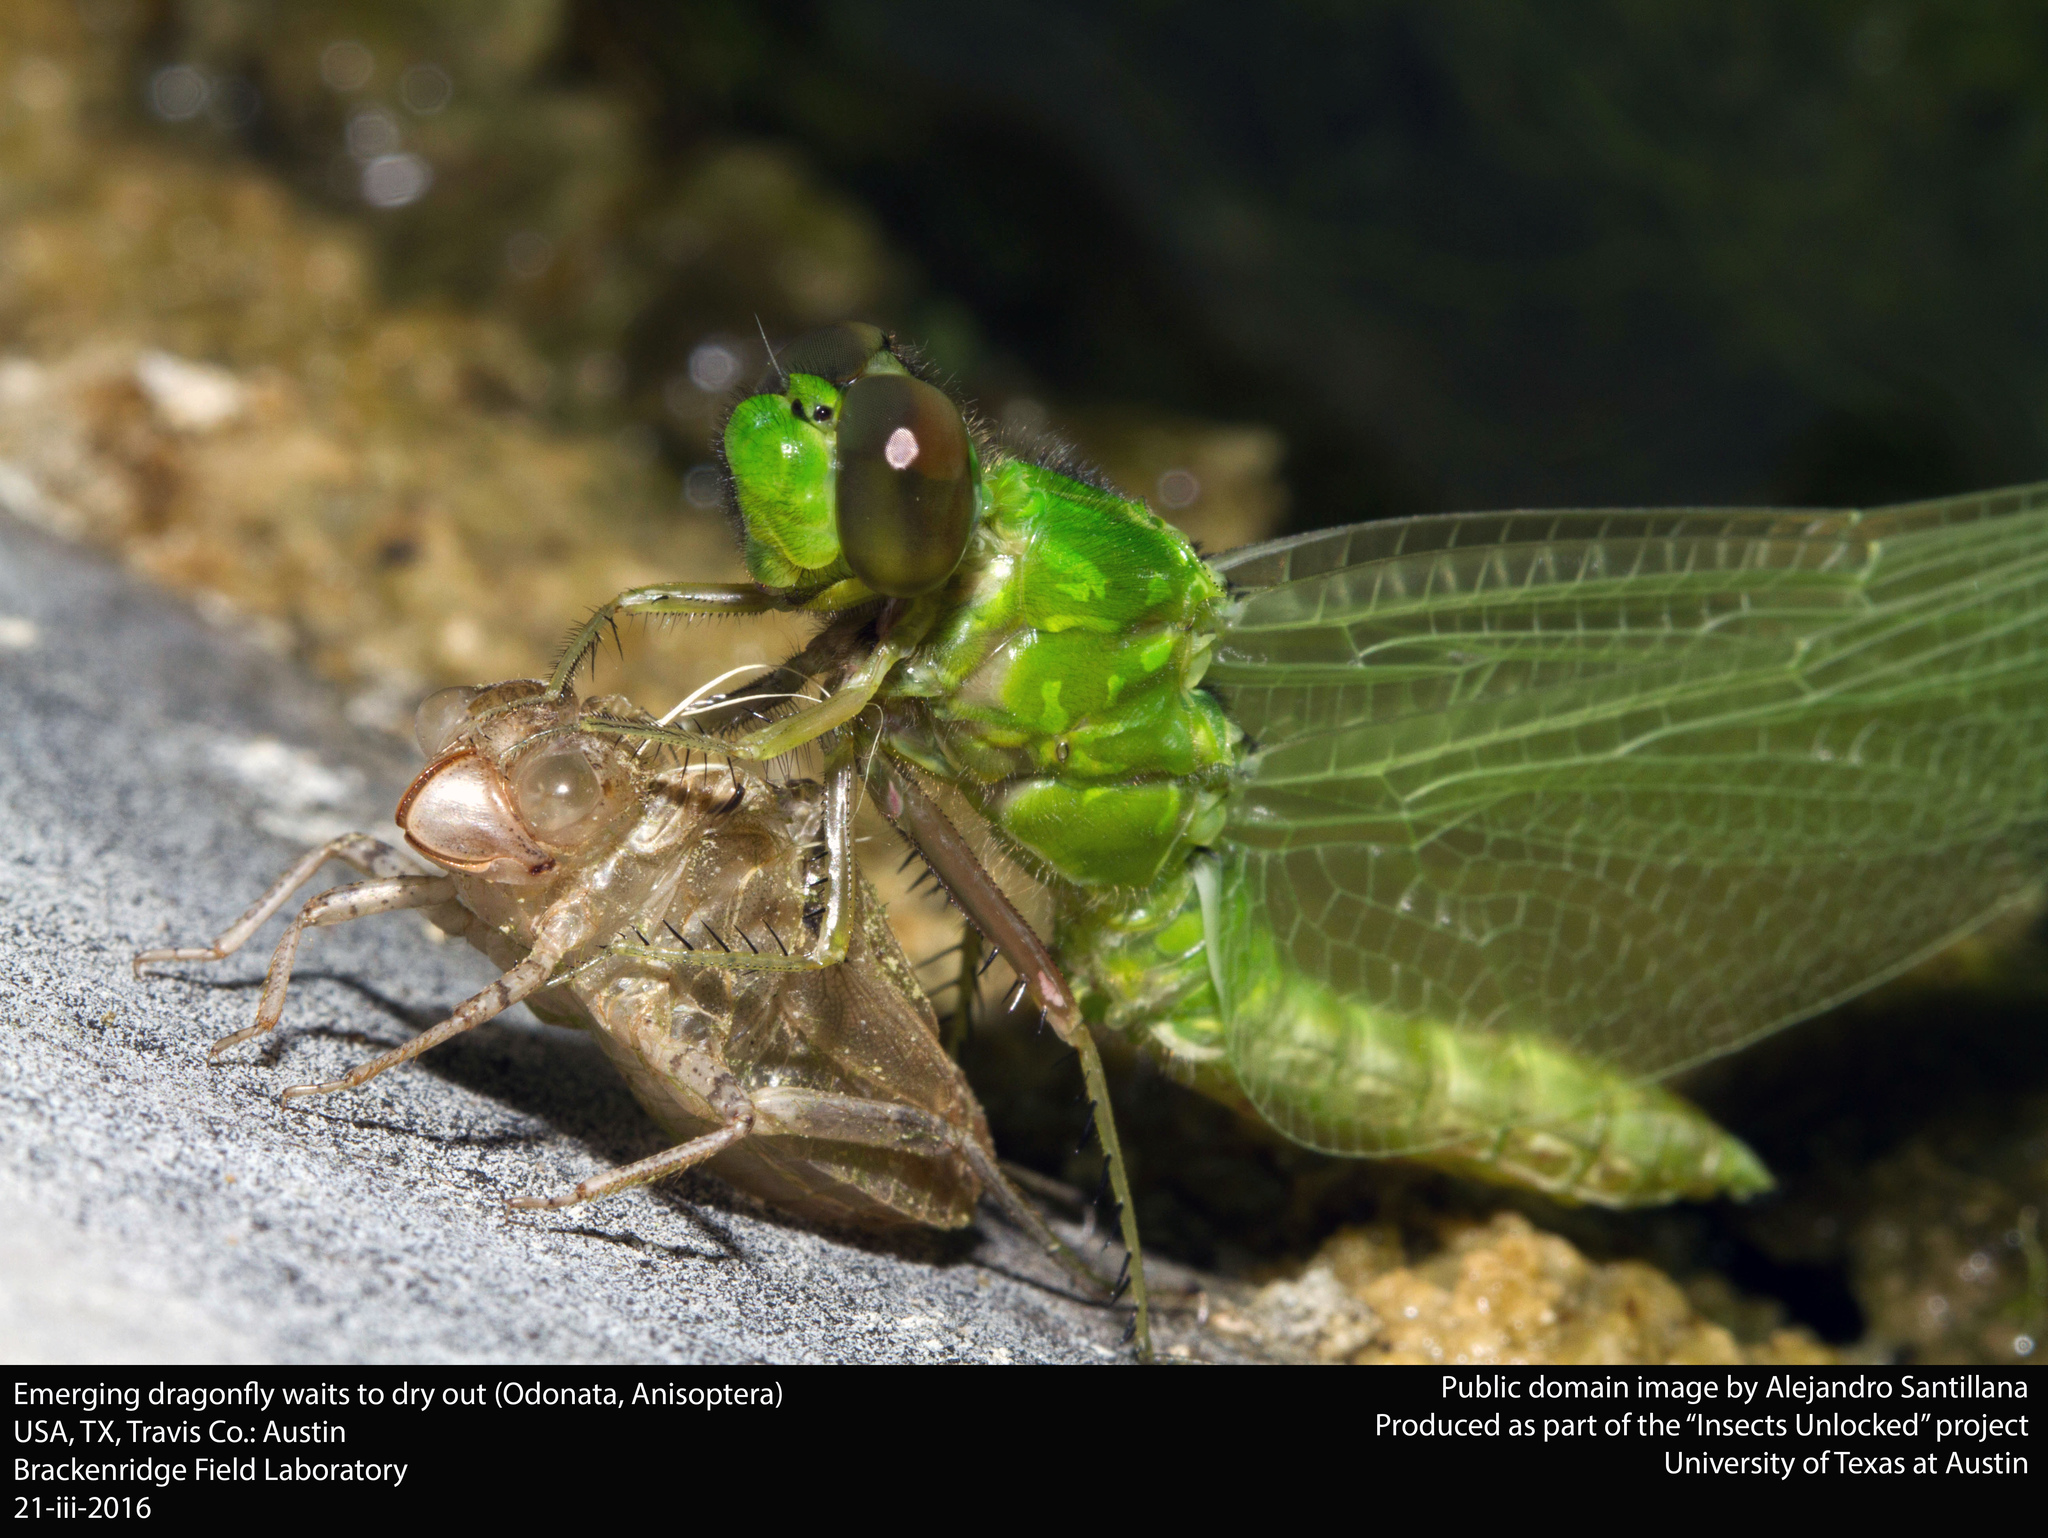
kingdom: Animalia
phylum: Arthropoda
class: Insecta
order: Odonata
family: Libellulidae
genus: Erythemis
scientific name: Erythemis simplicicollis
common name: Eastern pondhawk
